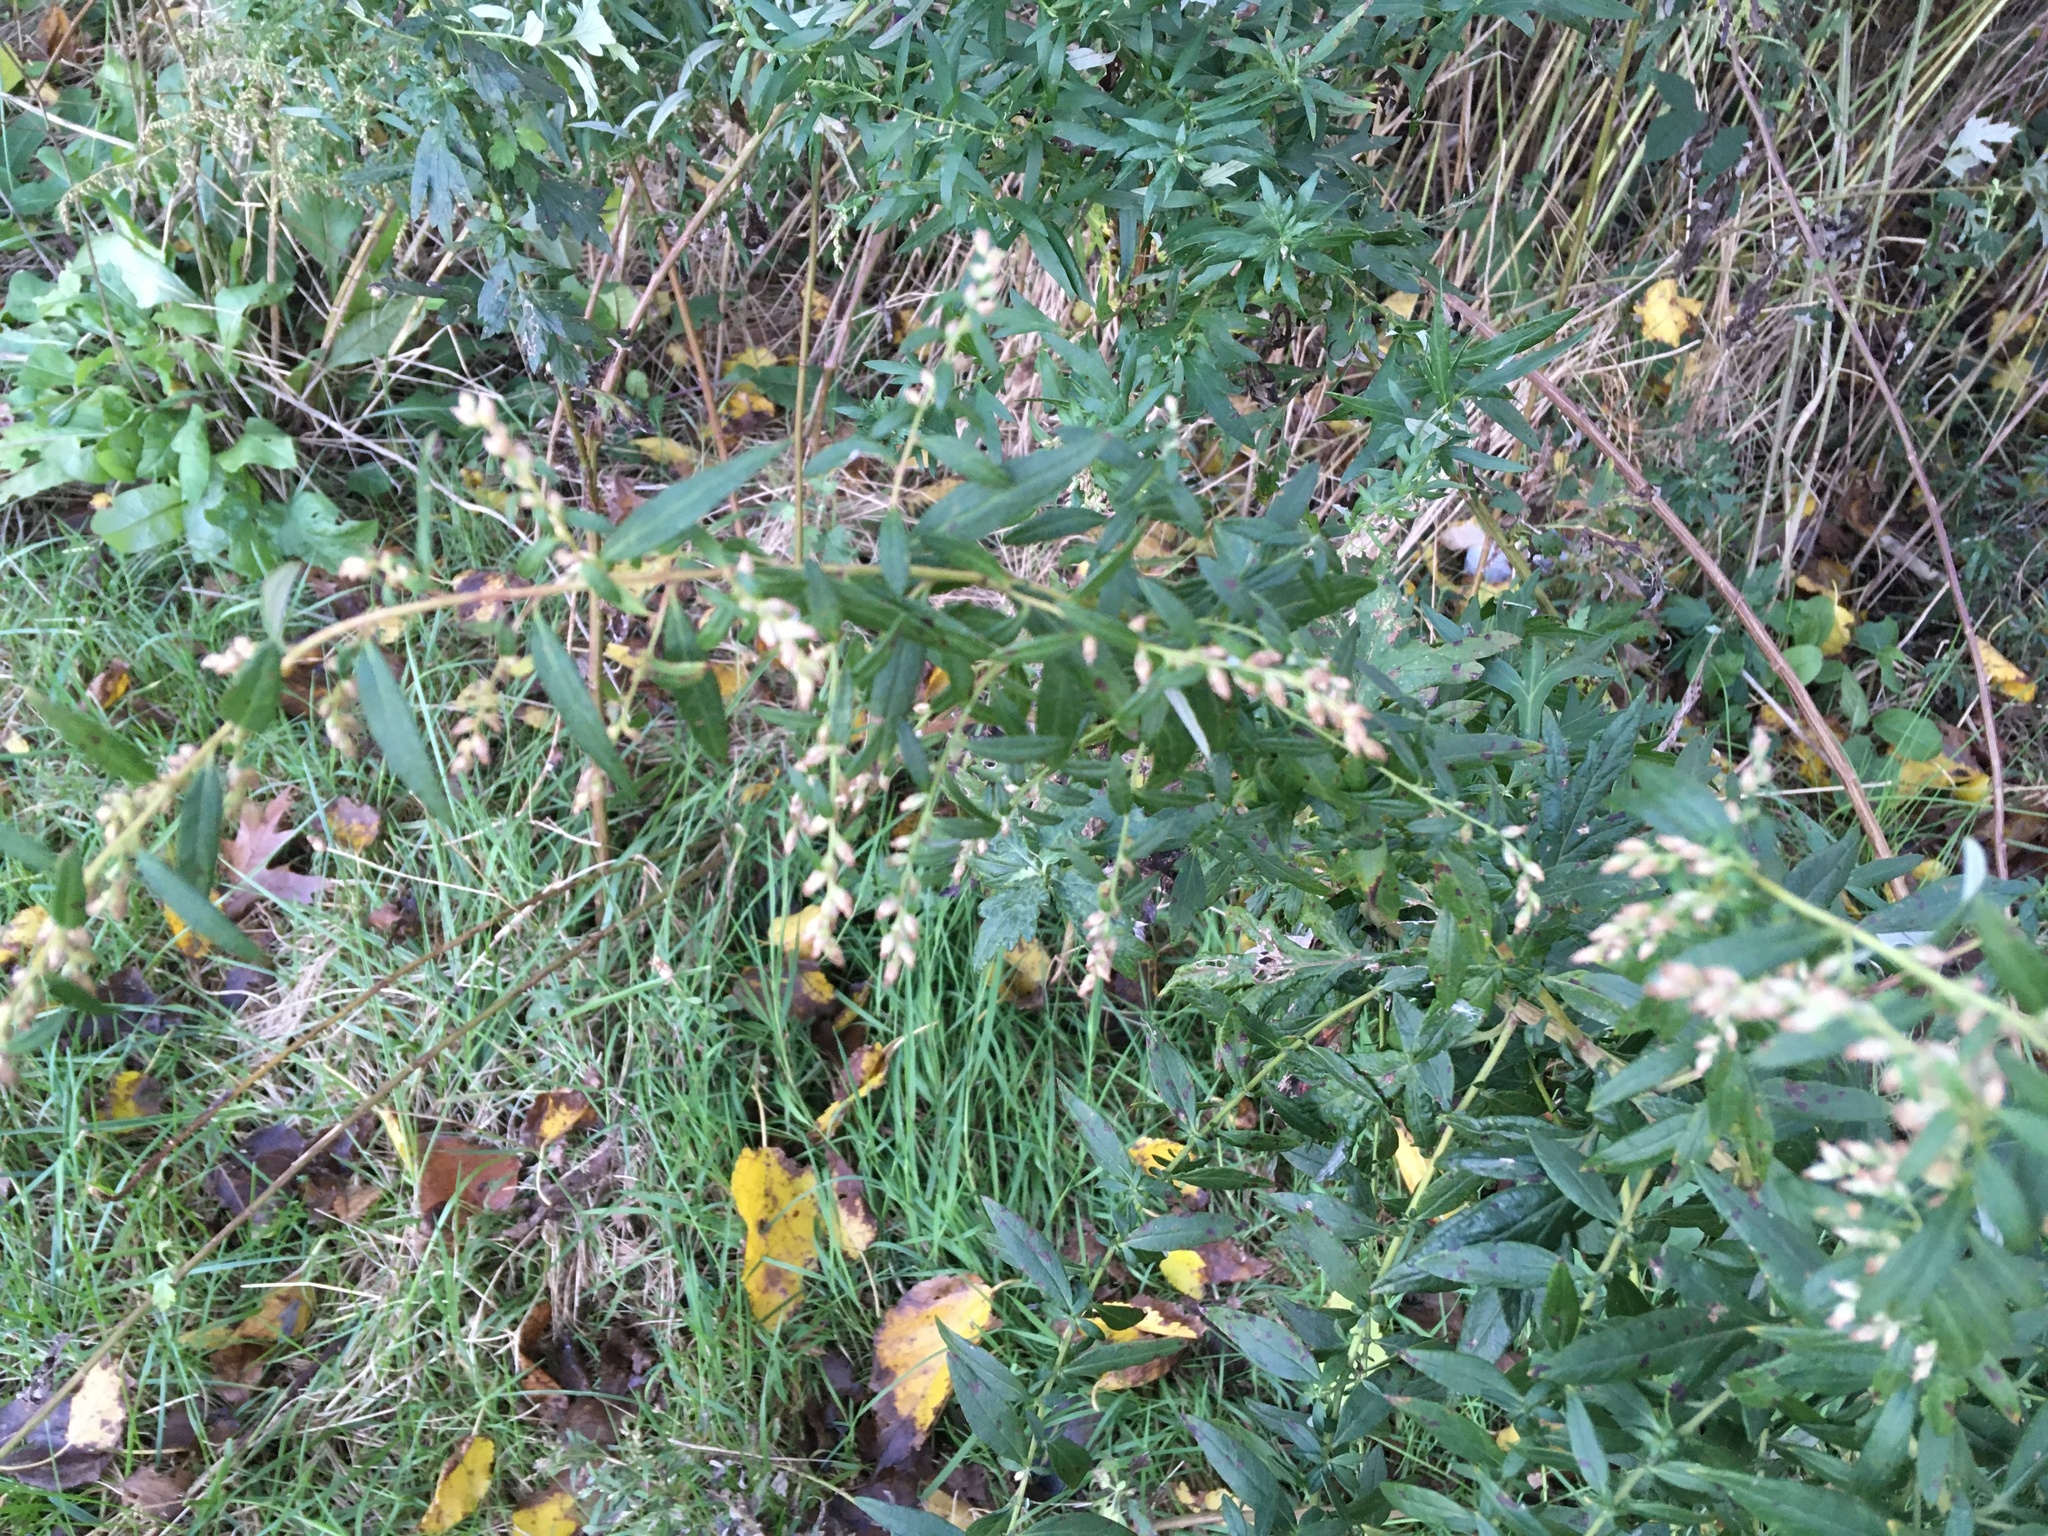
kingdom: Plantae
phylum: Tracheophyta
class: Magnoliopsida
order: Asterales
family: Asteraceae
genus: Artemisia
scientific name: Artemisia vulgaris
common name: Mugwort
